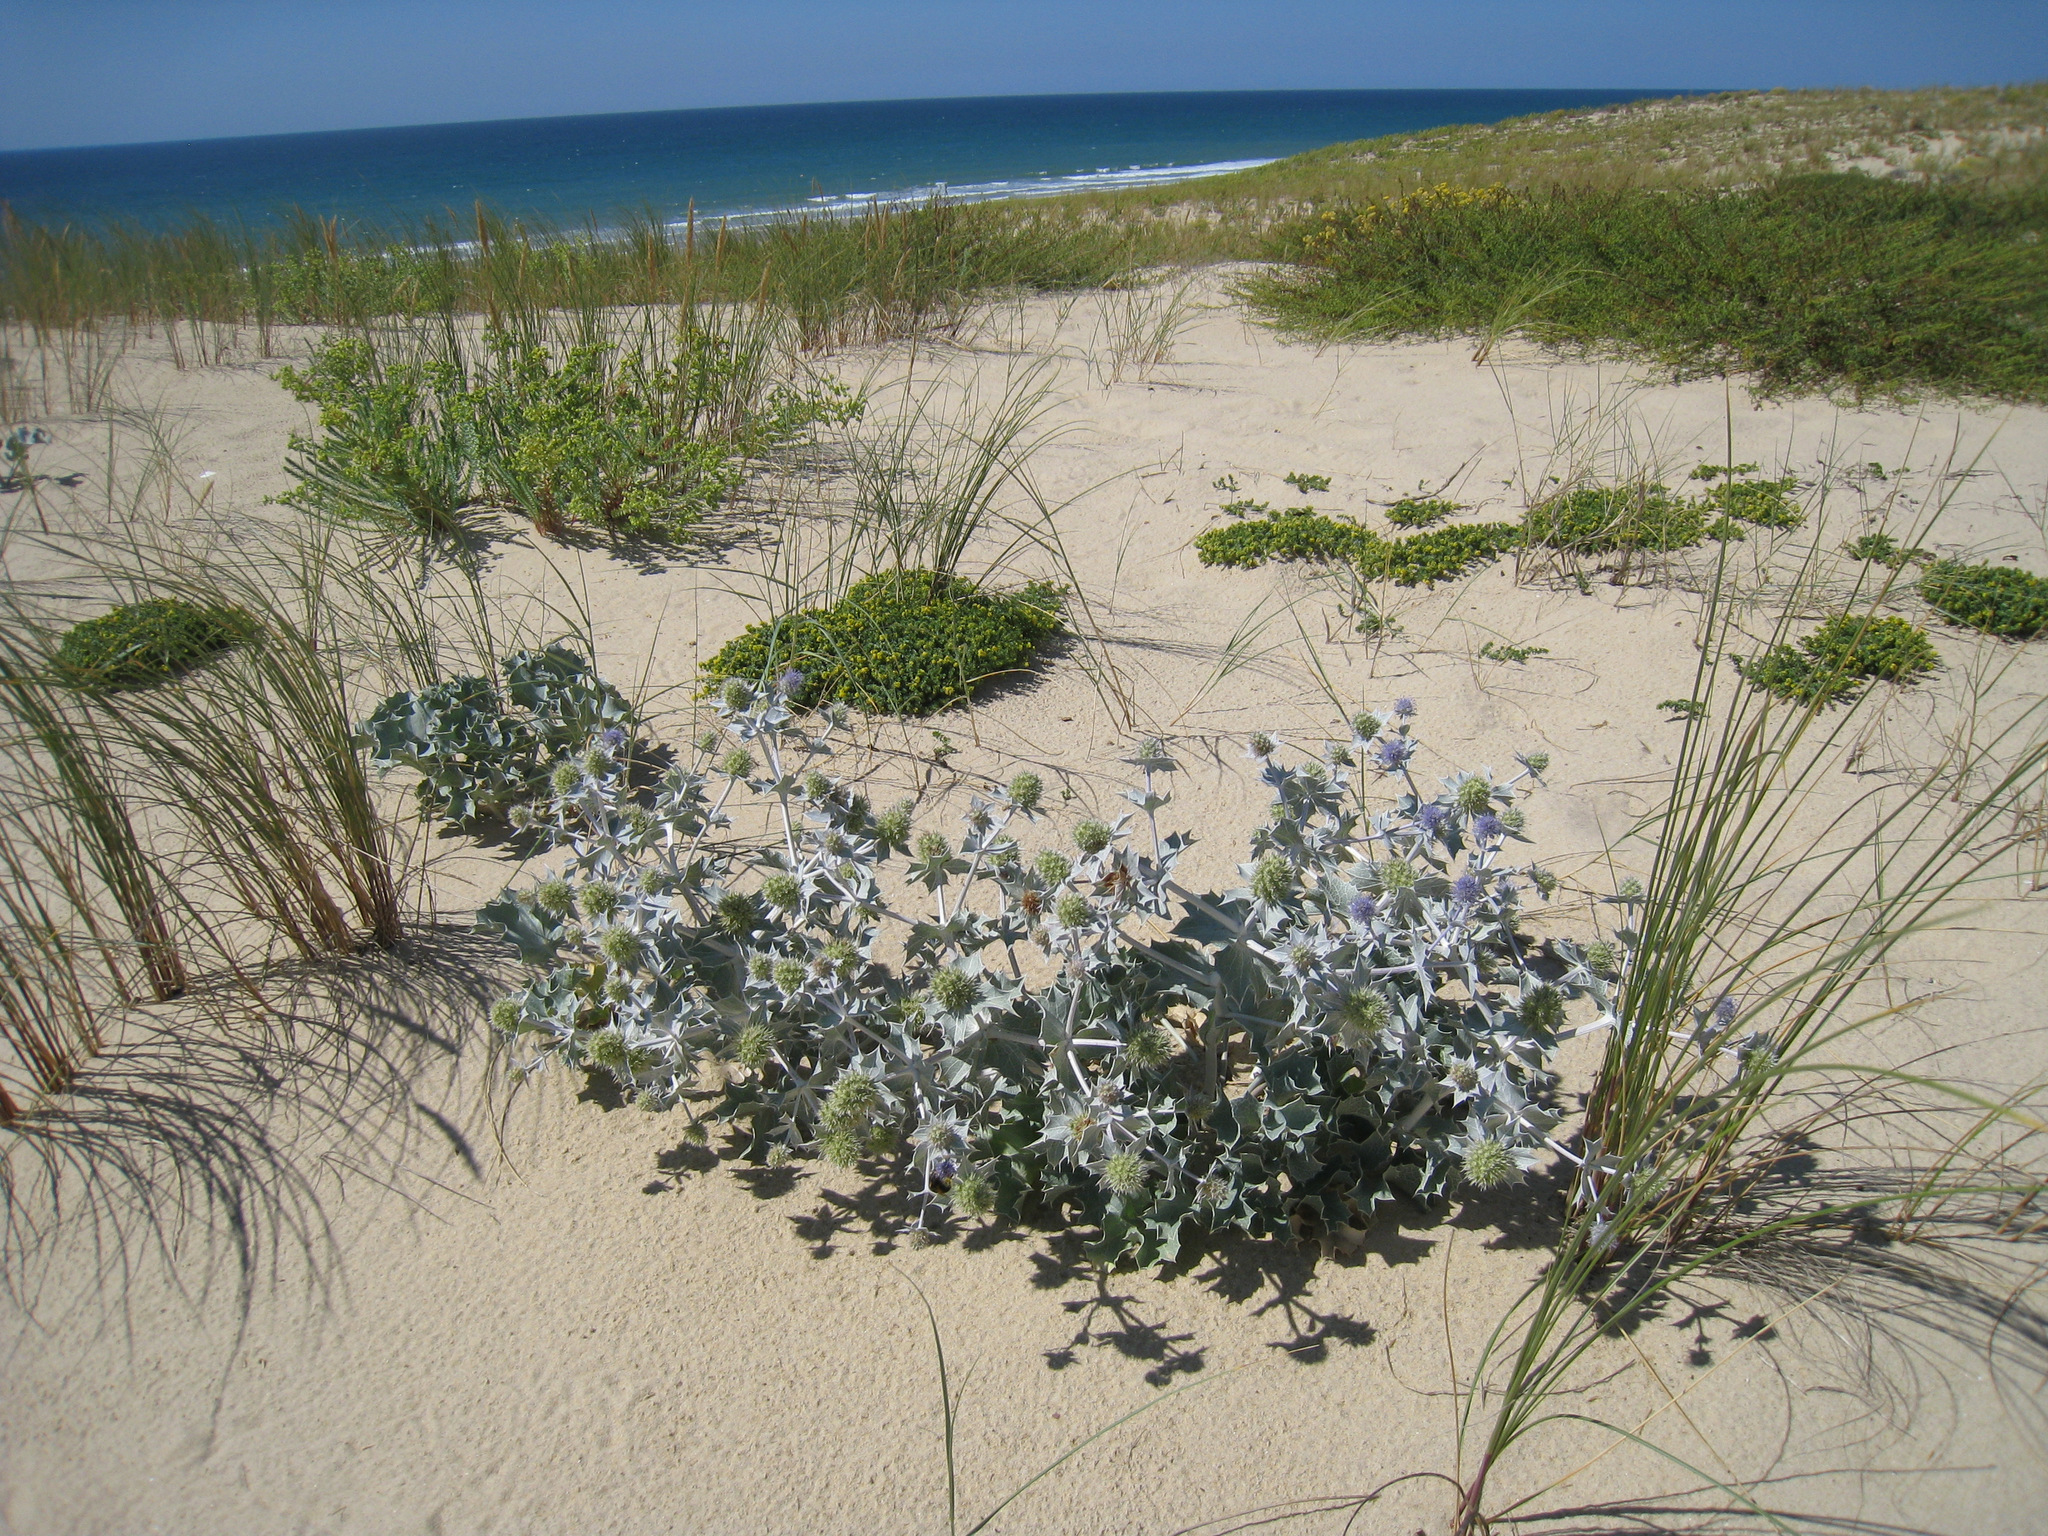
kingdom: Plantae
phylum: Tracheophyta
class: Magnoliopsida
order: Apiales
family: Apiaceae
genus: Eryngium
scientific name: Eryngium maritimum
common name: Sea-holly
